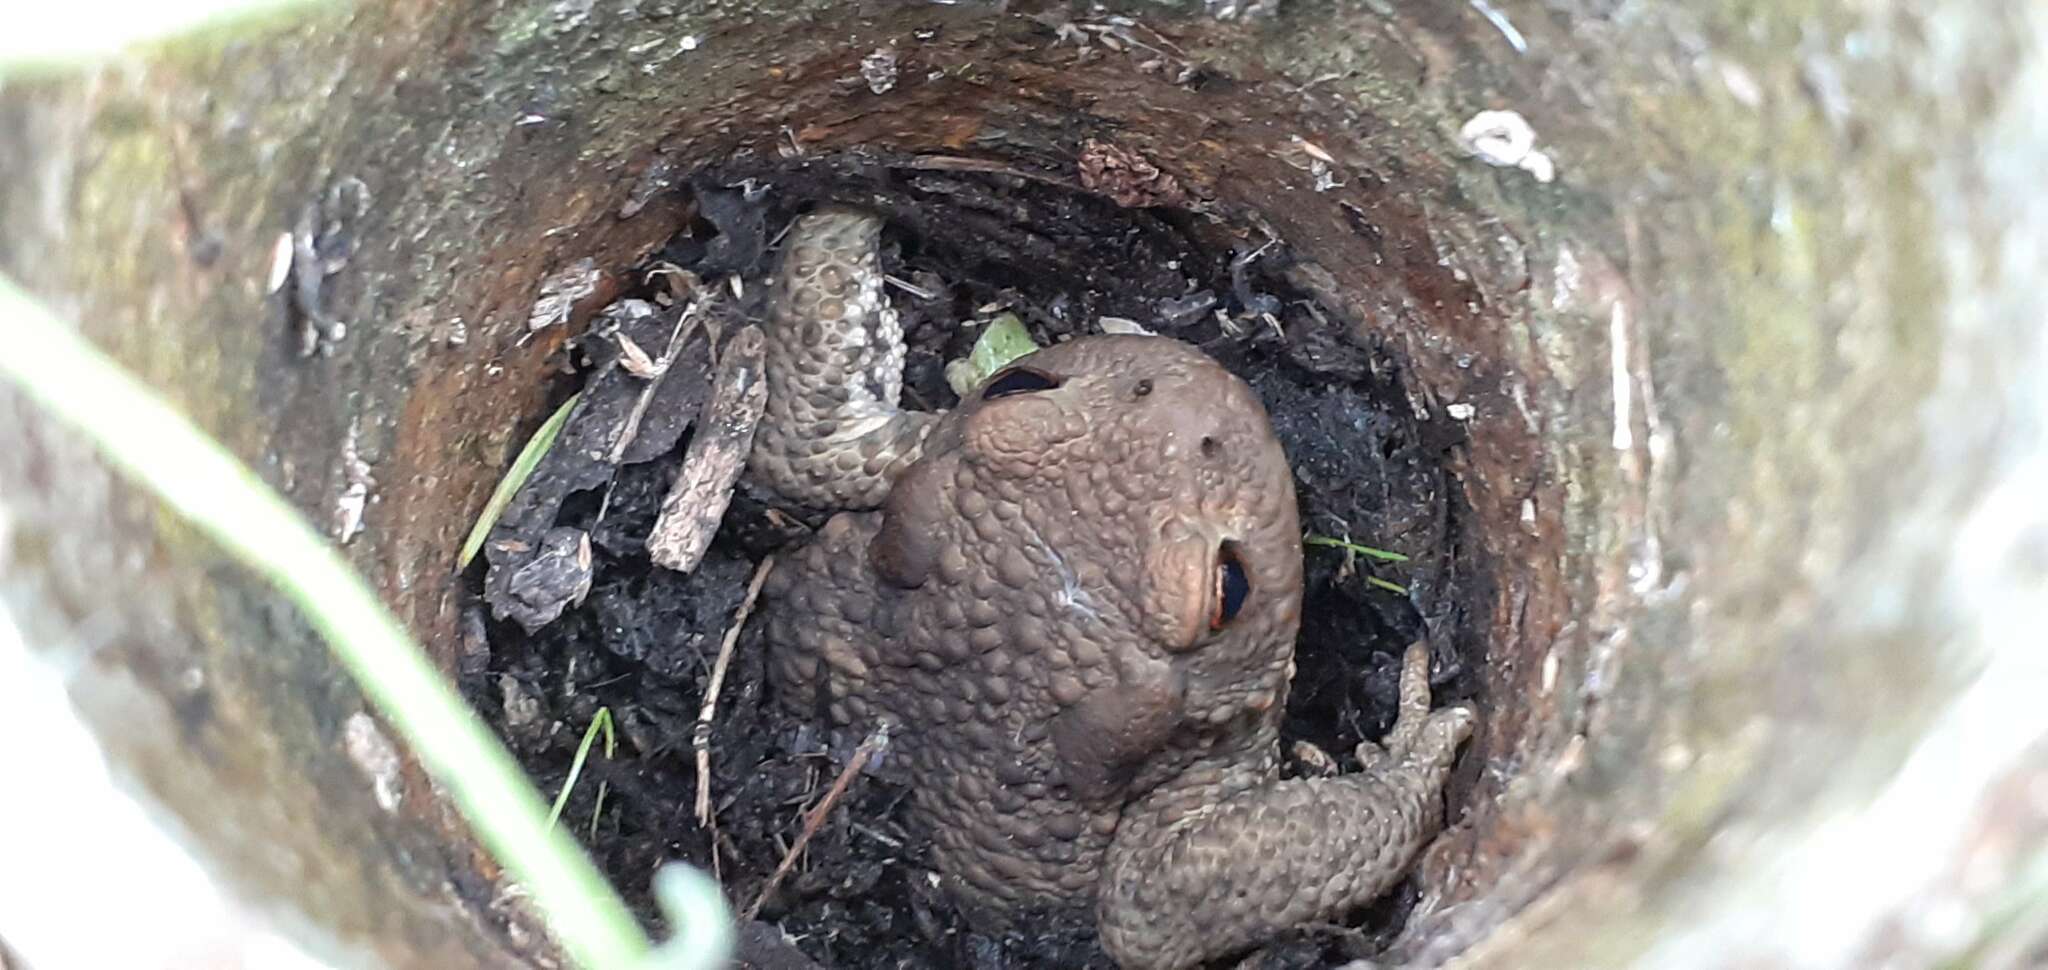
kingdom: Animalia
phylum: Chordata
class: Amphibia
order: Anura
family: Bufonidae
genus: Bufo
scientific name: Bufo bufo
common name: Common toad
